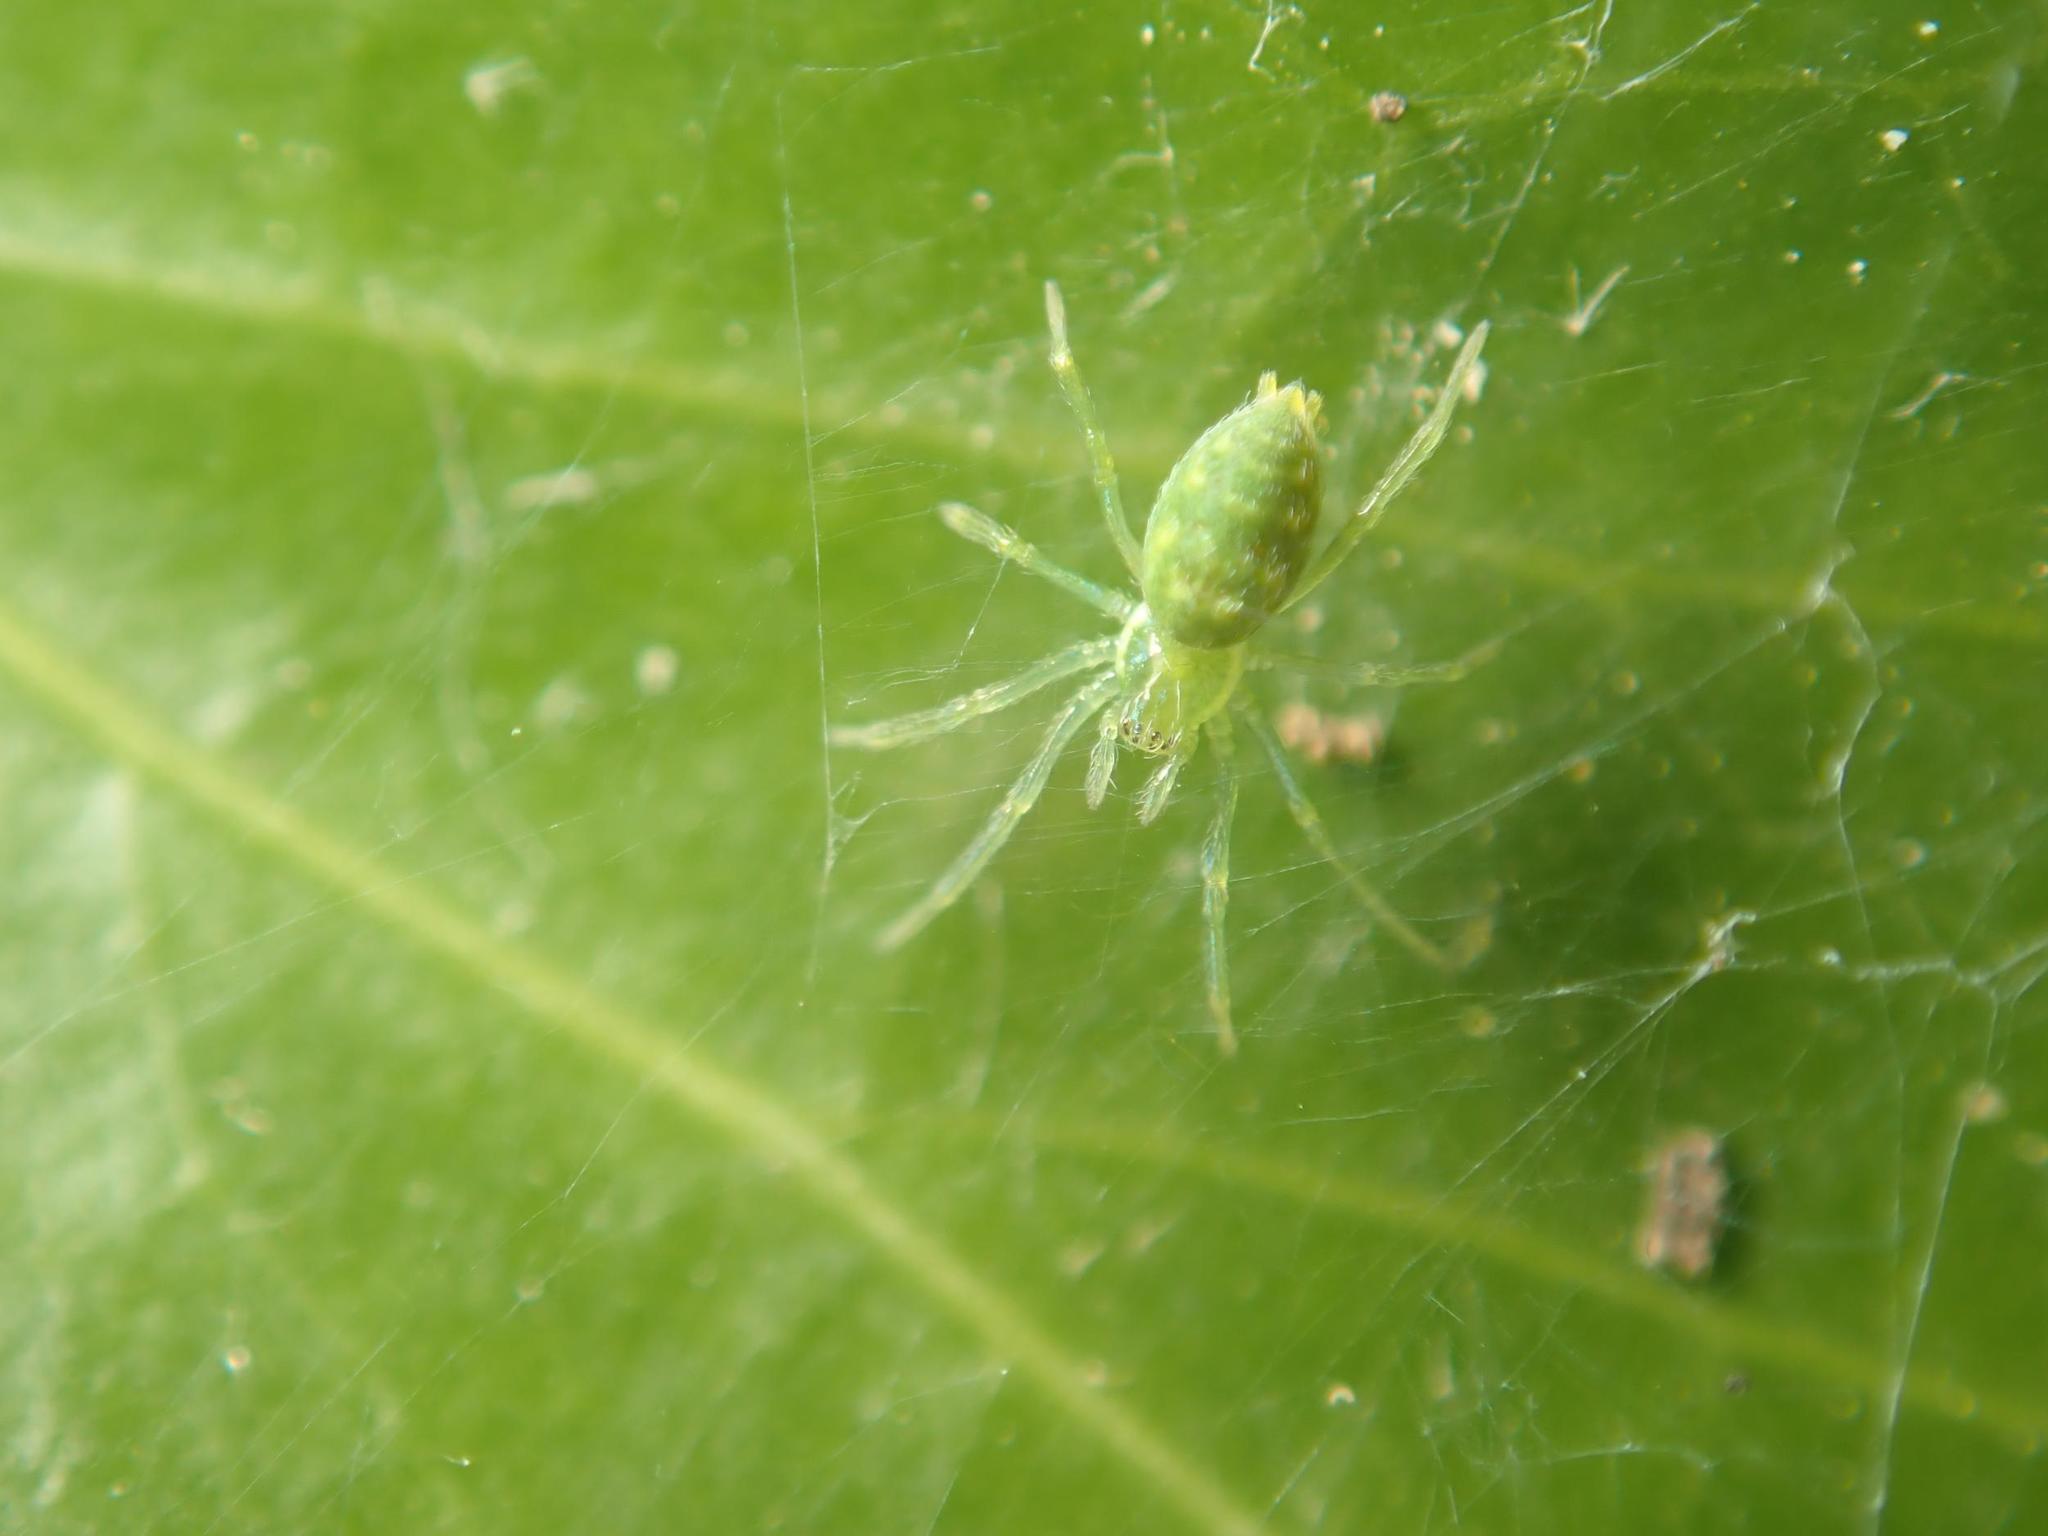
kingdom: Animalia
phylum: Arthropoda
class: Arachnida
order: Araneae
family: Dictynidae
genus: Nigma
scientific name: Nigma walckenaeri
